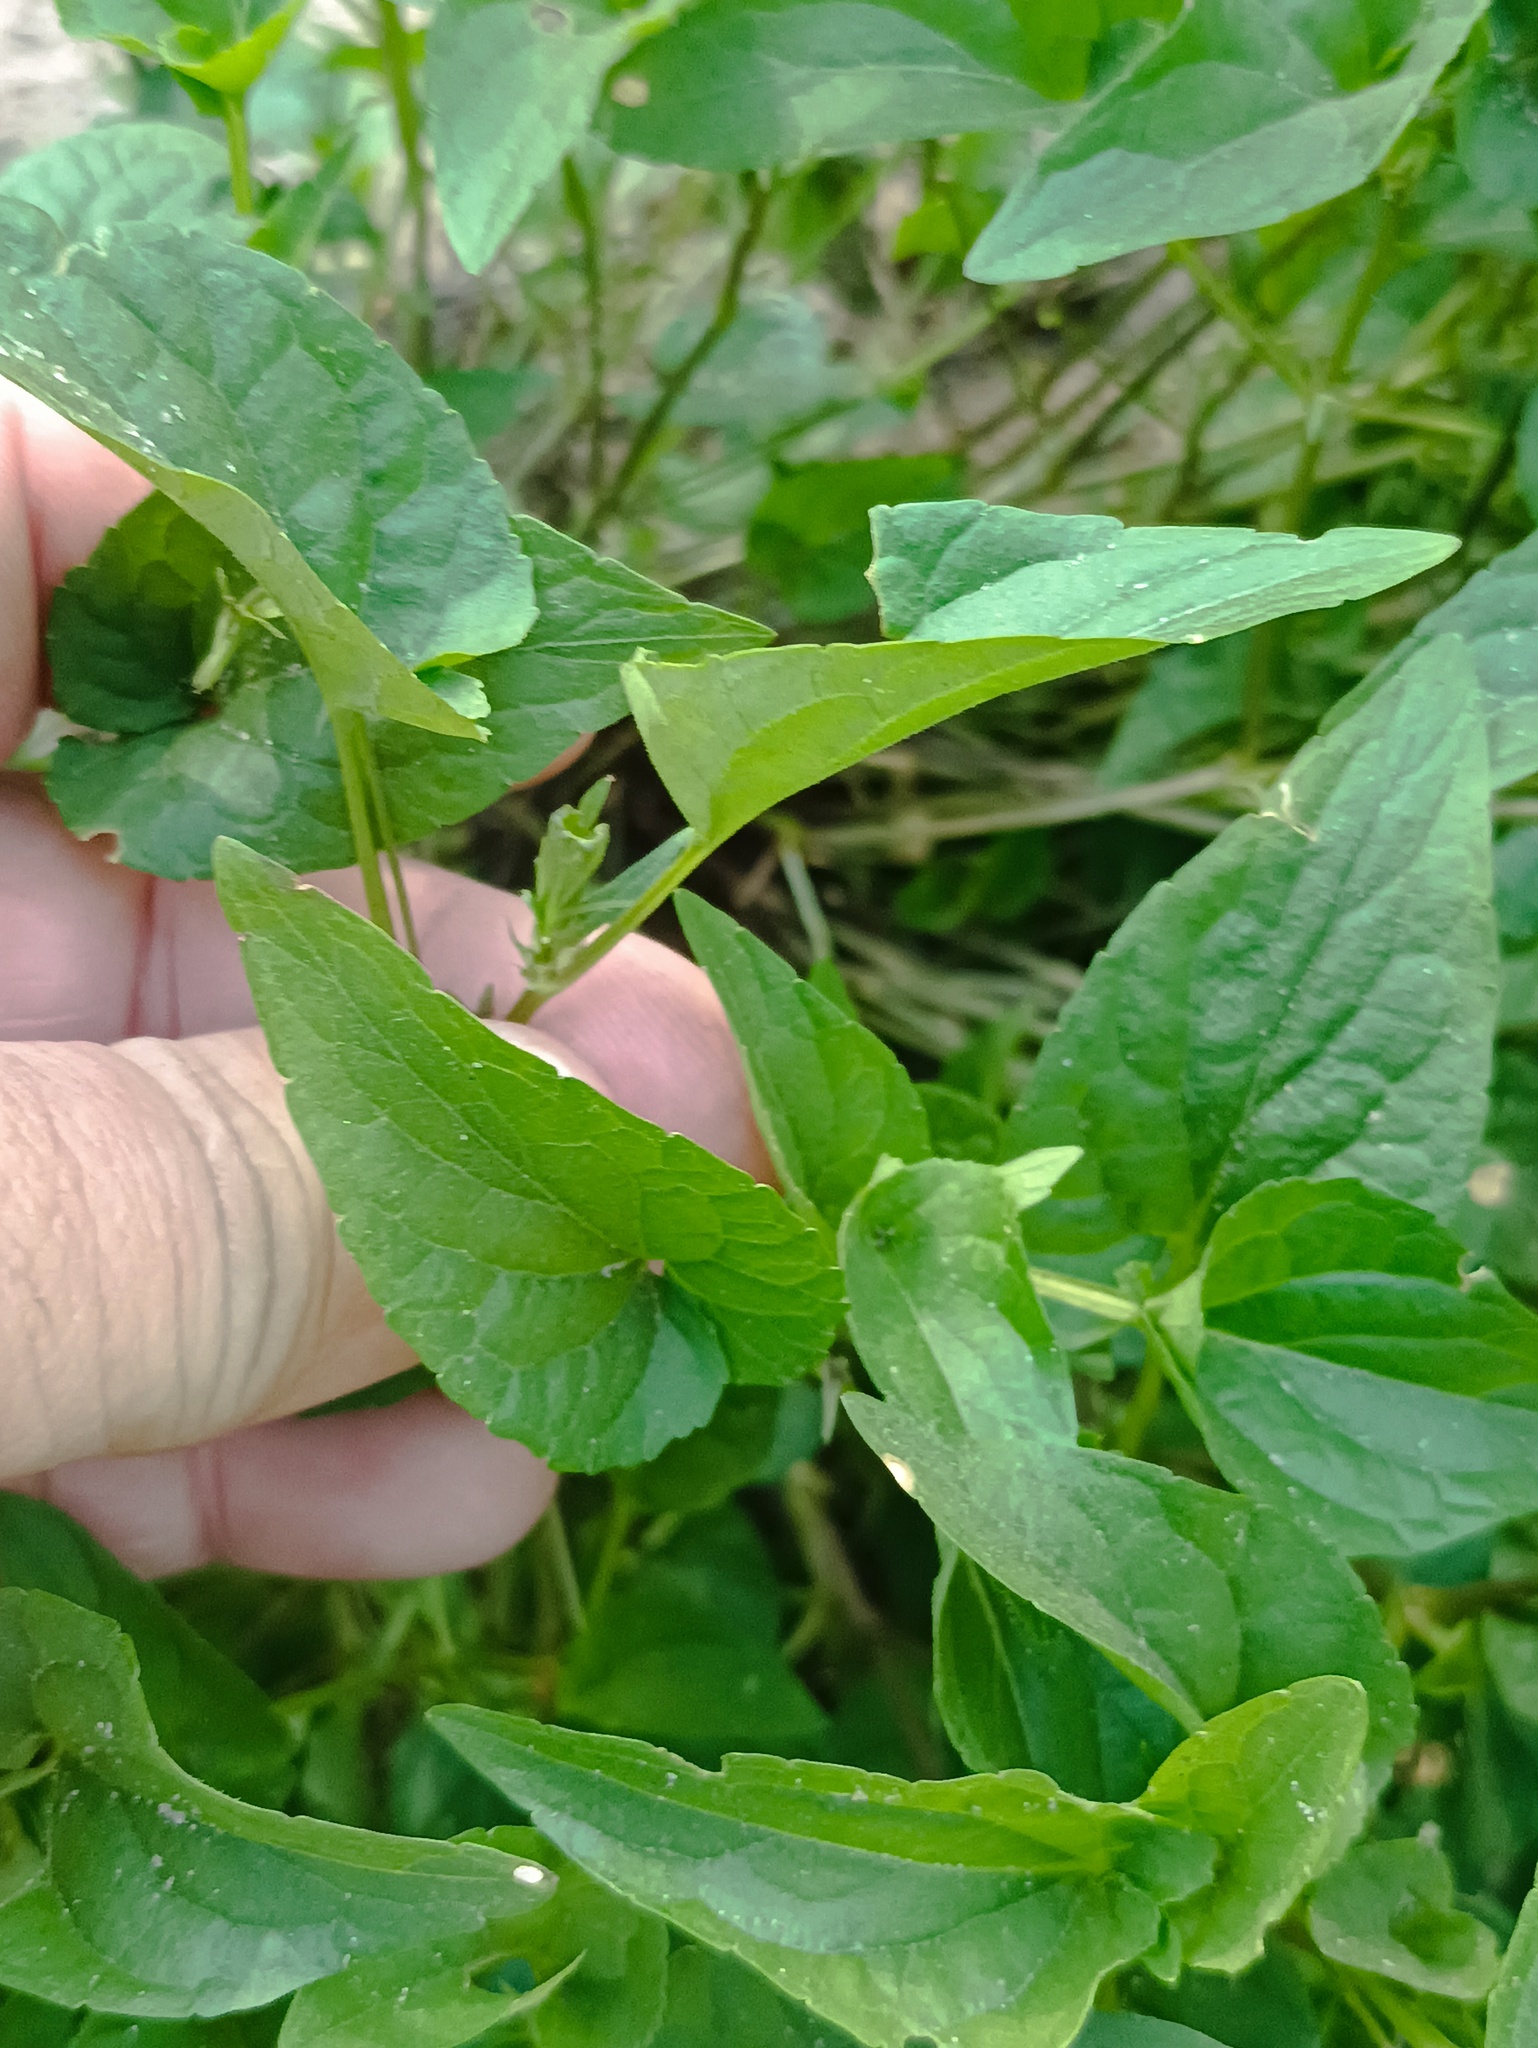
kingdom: Plantae
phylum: Tracheophyta
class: Magnoliopsida
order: Malpighiales
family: Violaceae
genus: Viola
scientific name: Viola canina
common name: Heath dog-violet
